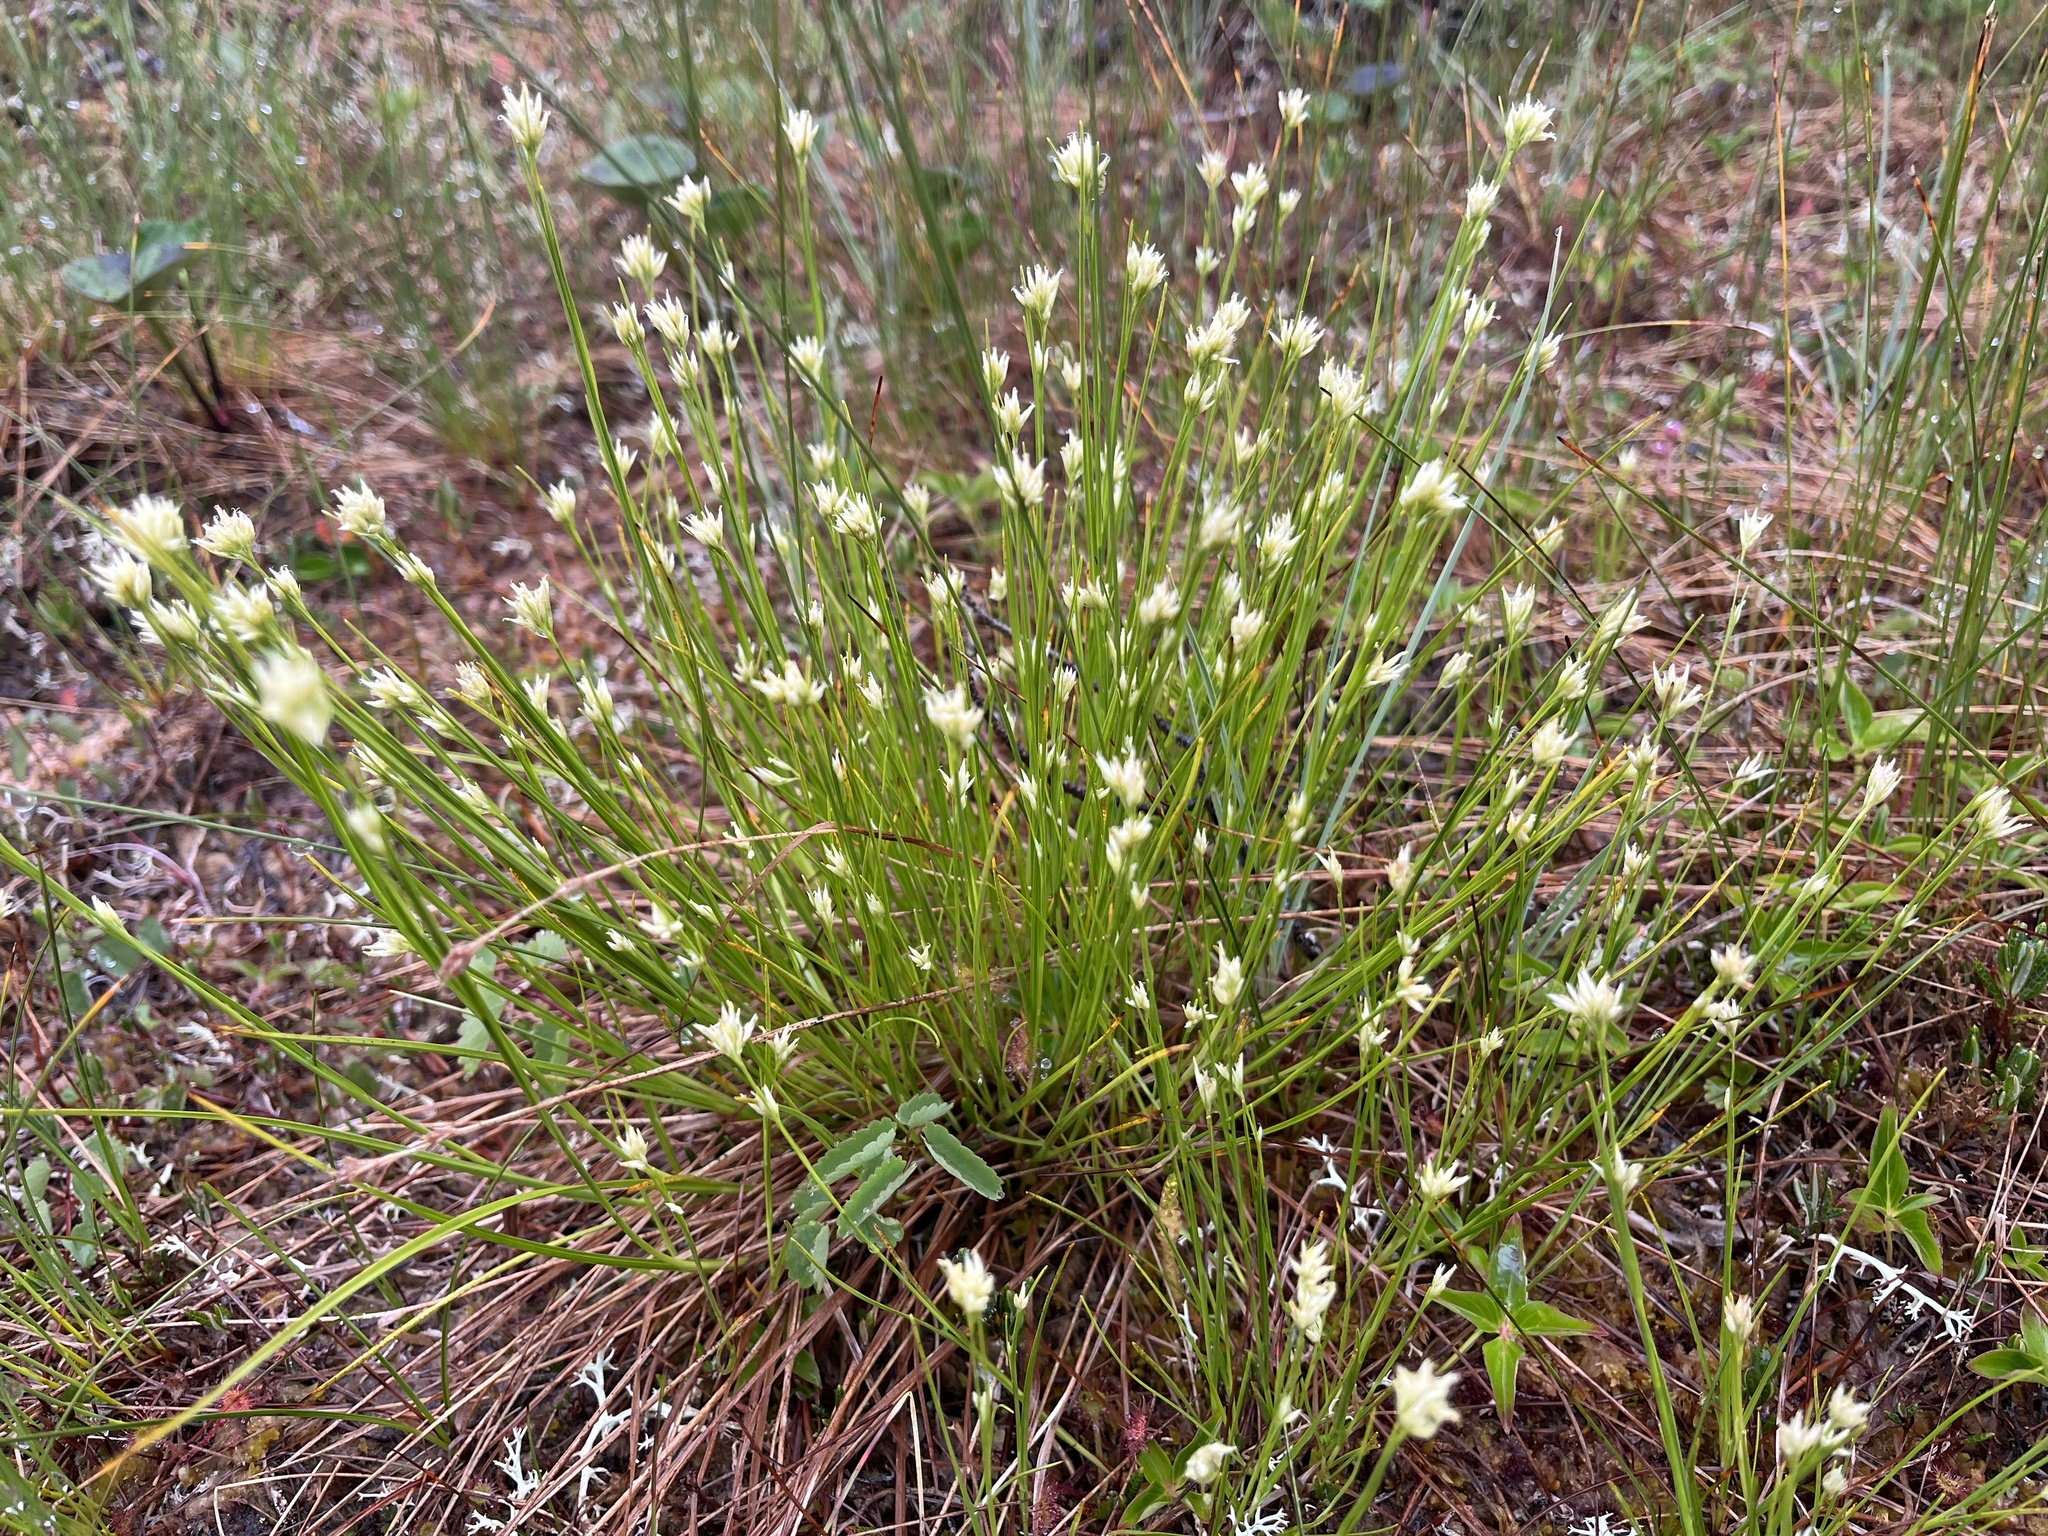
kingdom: Plantae
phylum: Tracheophyta
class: Liliopsida
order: Poales
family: Cyperaceae
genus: Rhynchospora
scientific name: Rhynchospora alba
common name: White beak-sedge
